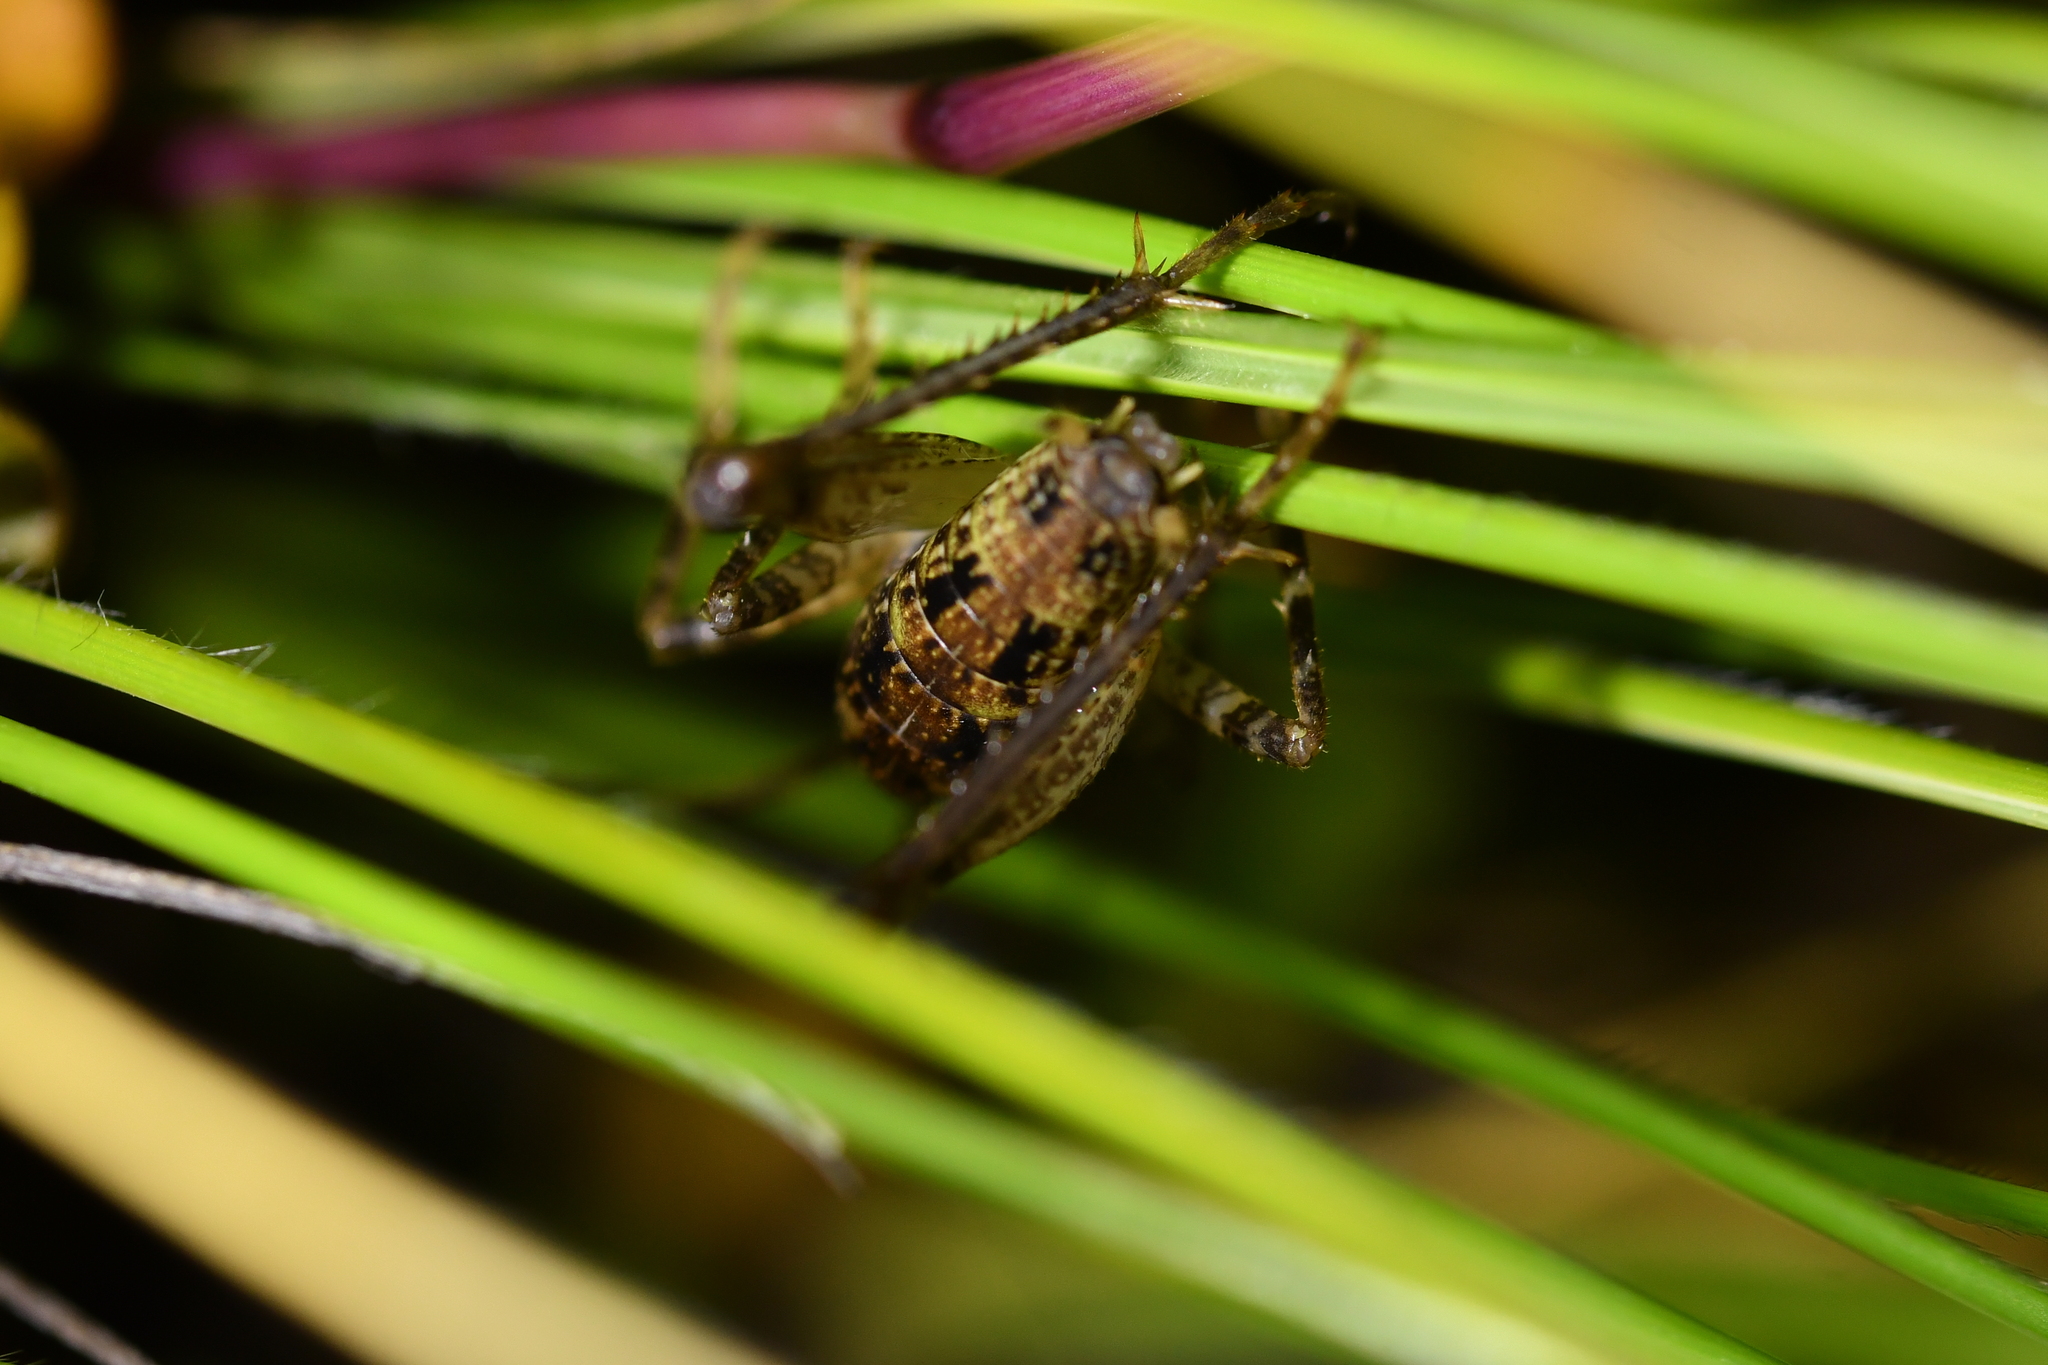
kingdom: Animalia
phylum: Arthropoda
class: Insecta
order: Orthoptera
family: Rhaphidophoridae
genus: Notoplectron
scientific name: Notoplectron brewsterensis
